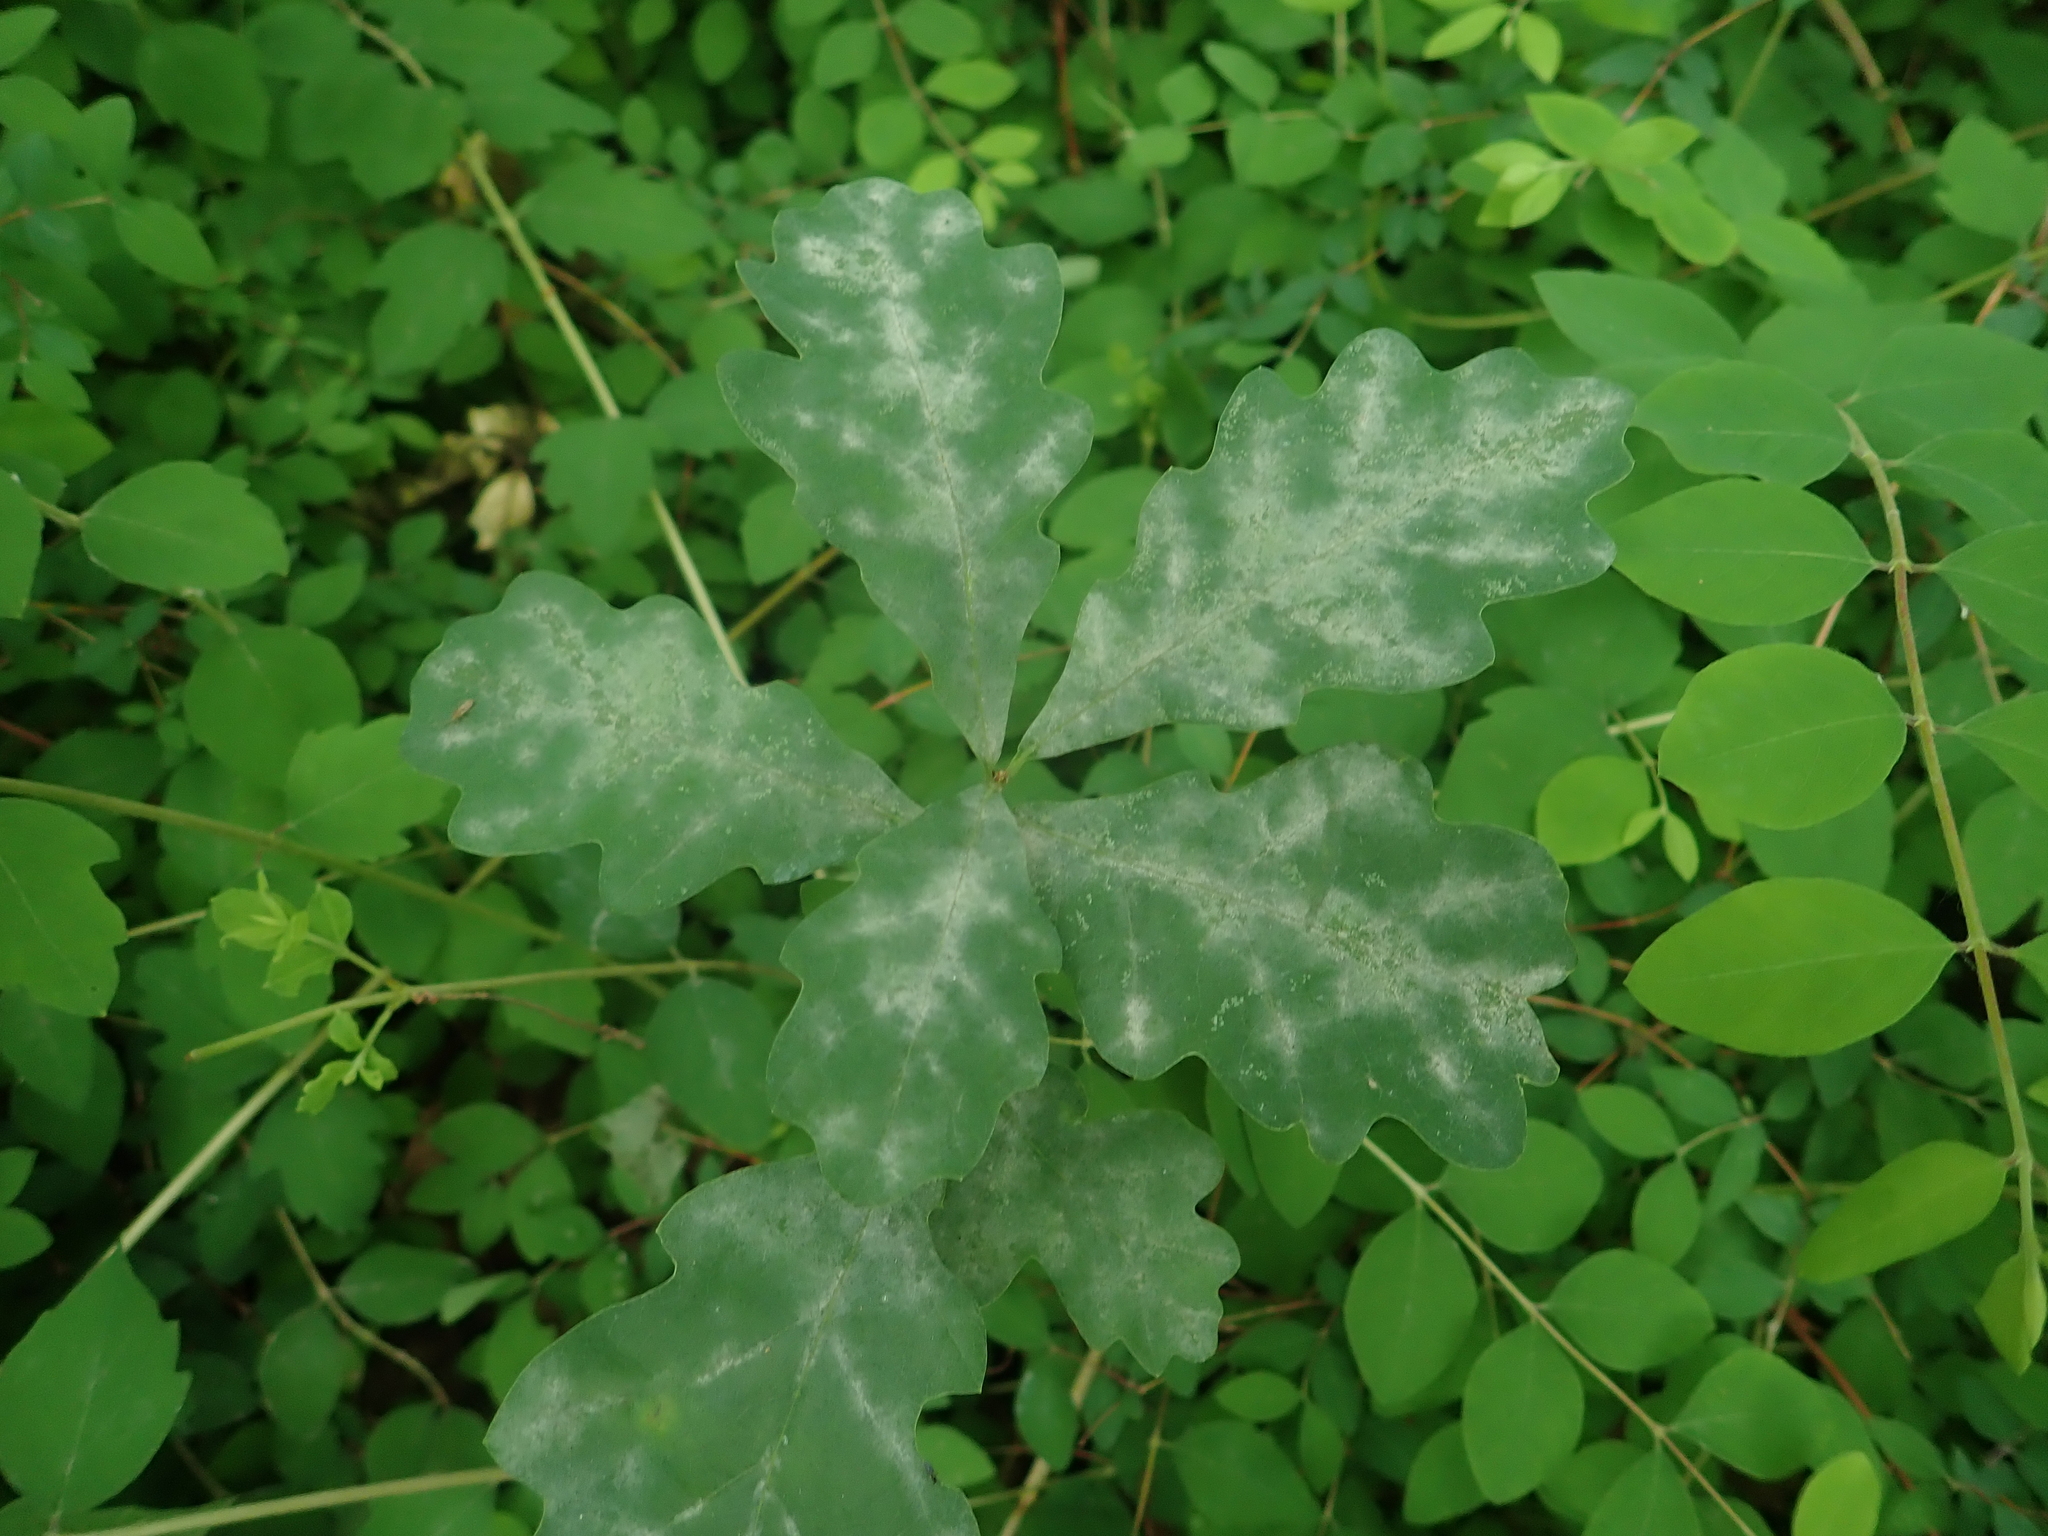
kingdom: Fungi
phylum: Ascomycota
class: Leotiomycetes
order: Helotiales
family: Erysiphaceae
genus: Erysiphe
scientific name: Erysiphe
